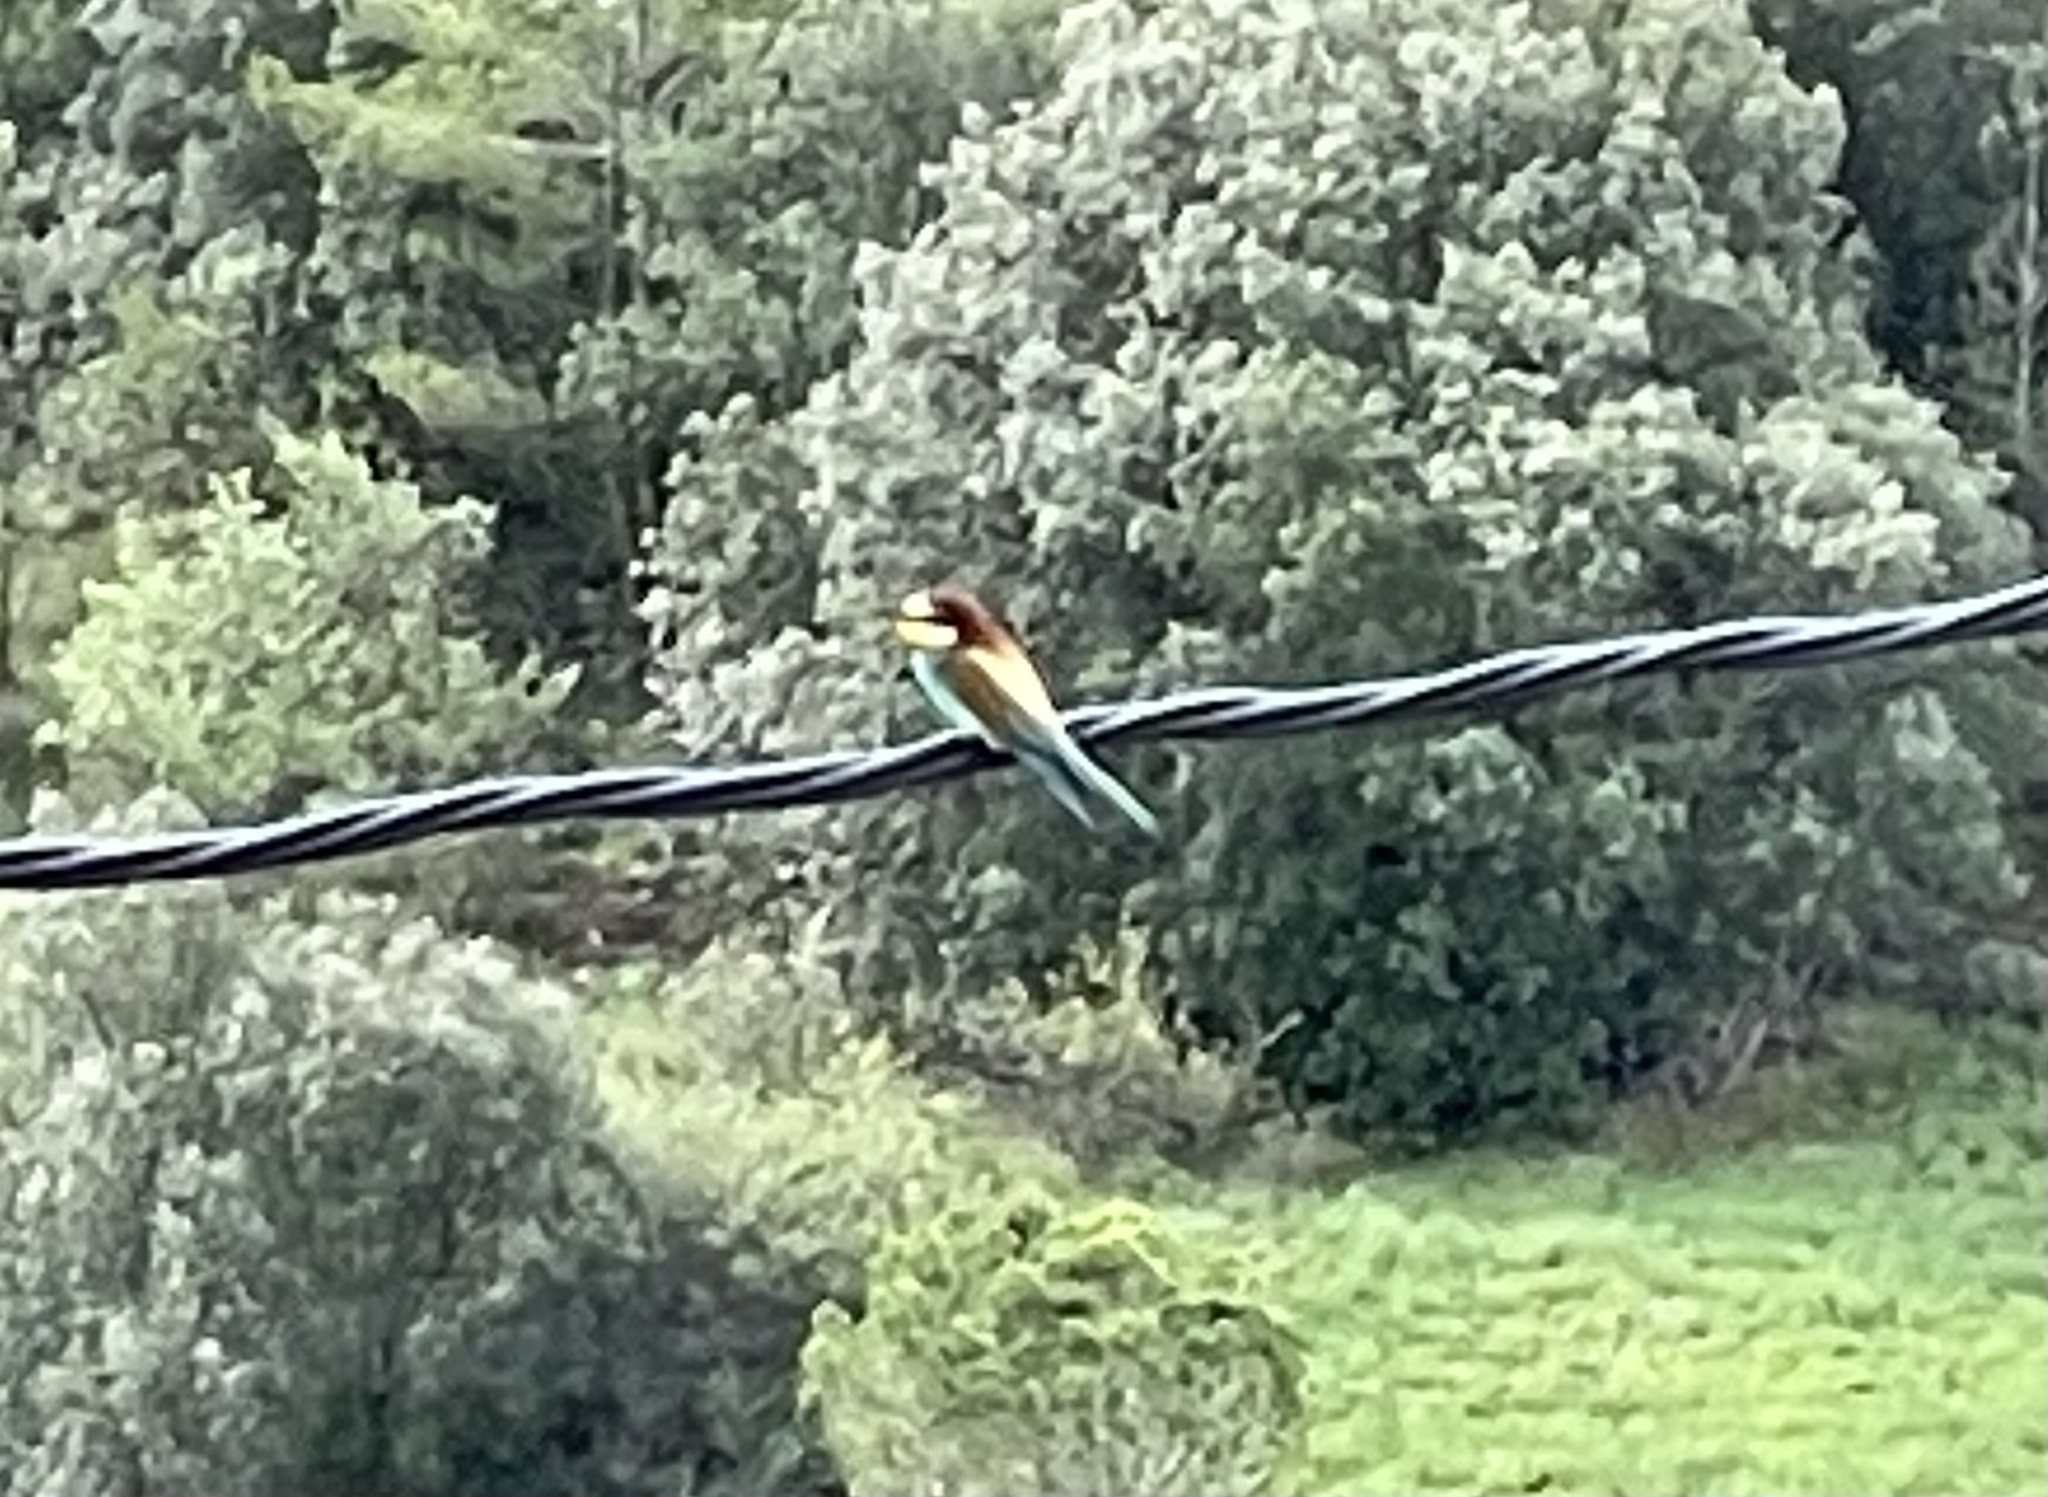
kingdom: Animalia
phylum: Chordata
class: Aves
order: Coraciiformes
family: Meropidae
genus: Merops
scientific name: Merops apiaster
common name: European bee-eater
